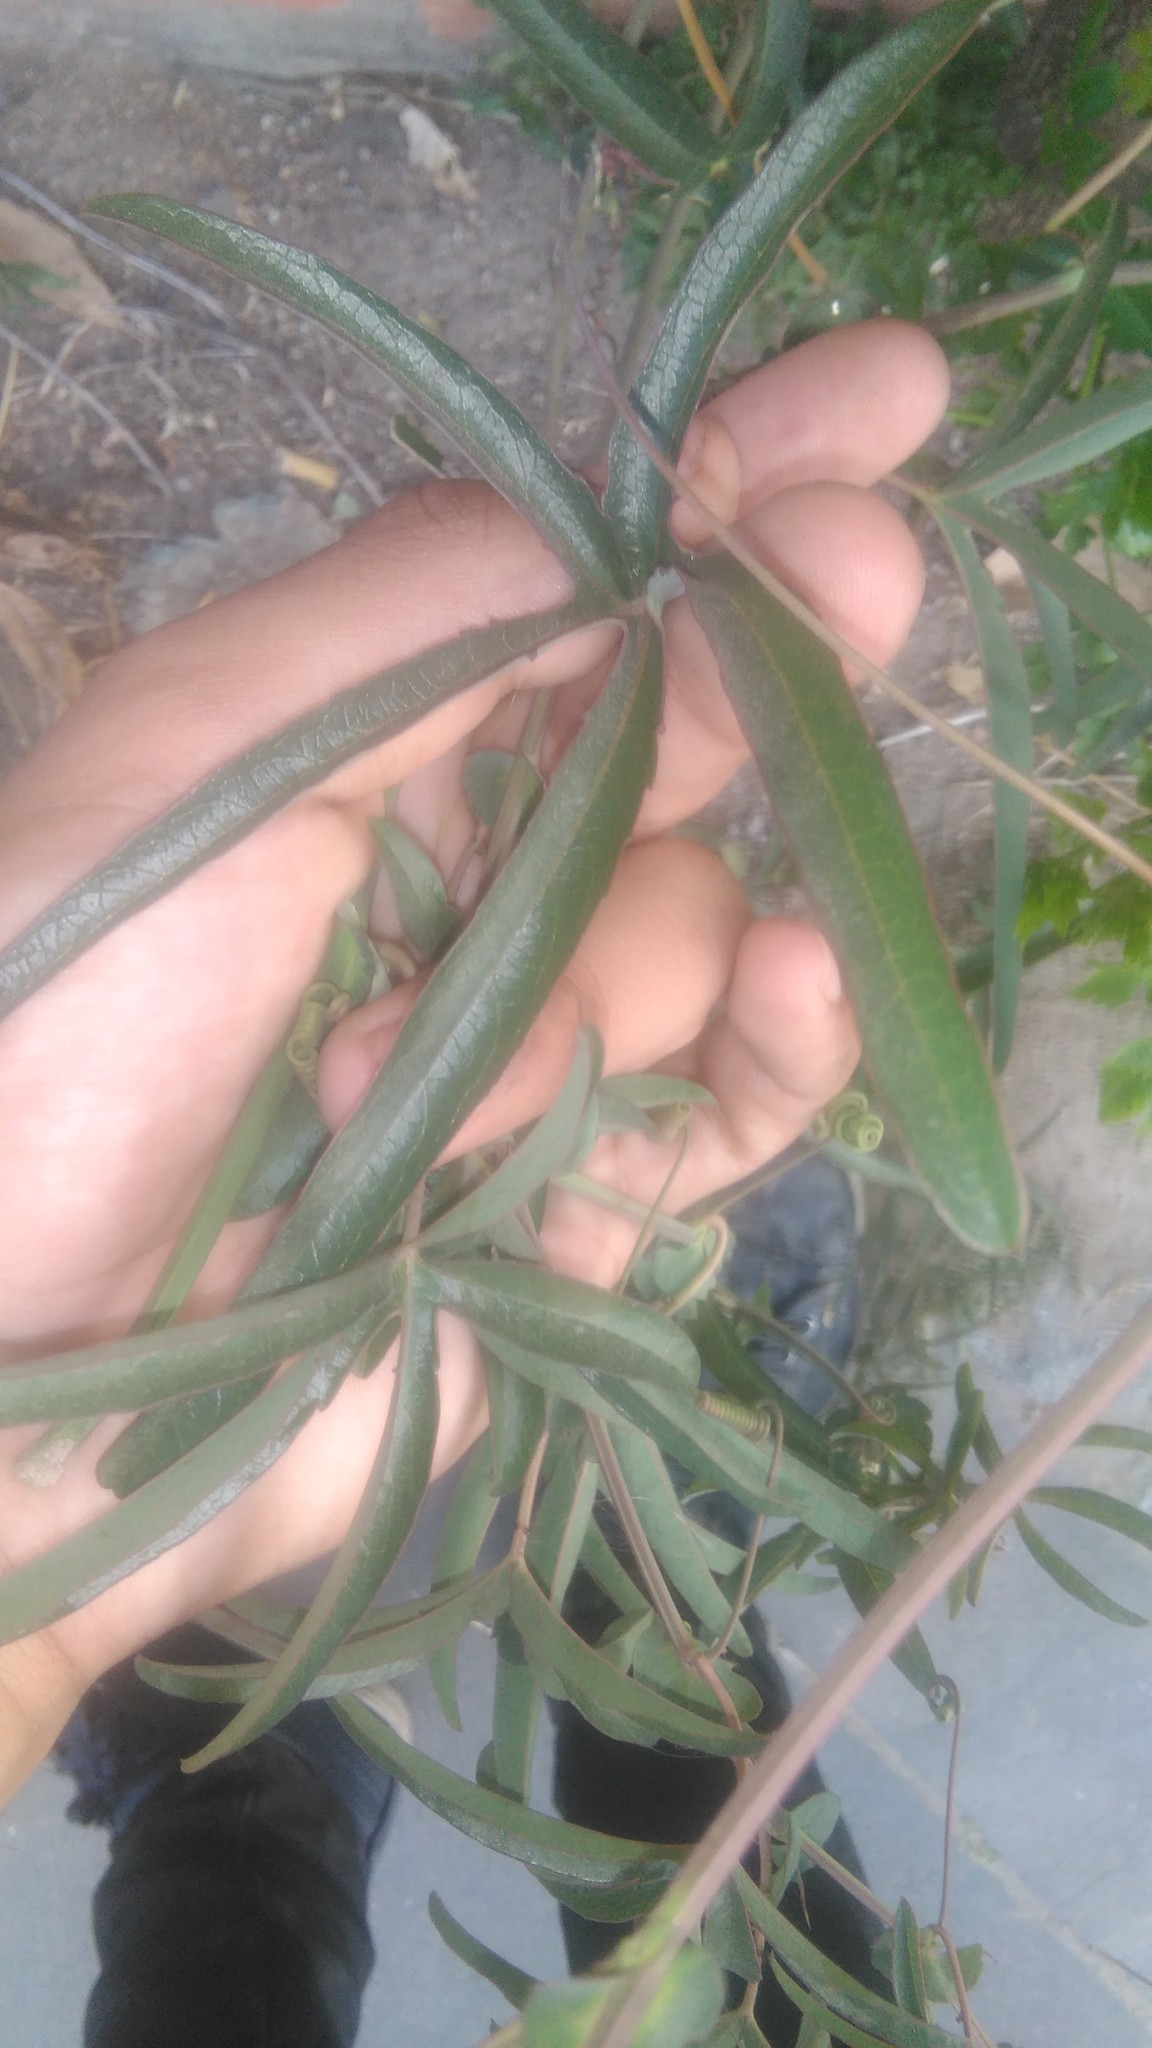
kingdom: Plantae
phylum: Tracheophyta
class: Magnoliopsida
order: Malpighiales
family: Passifloraceae
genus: Passiflora
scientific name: Passiflora caerulea
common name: Blue passionflower
